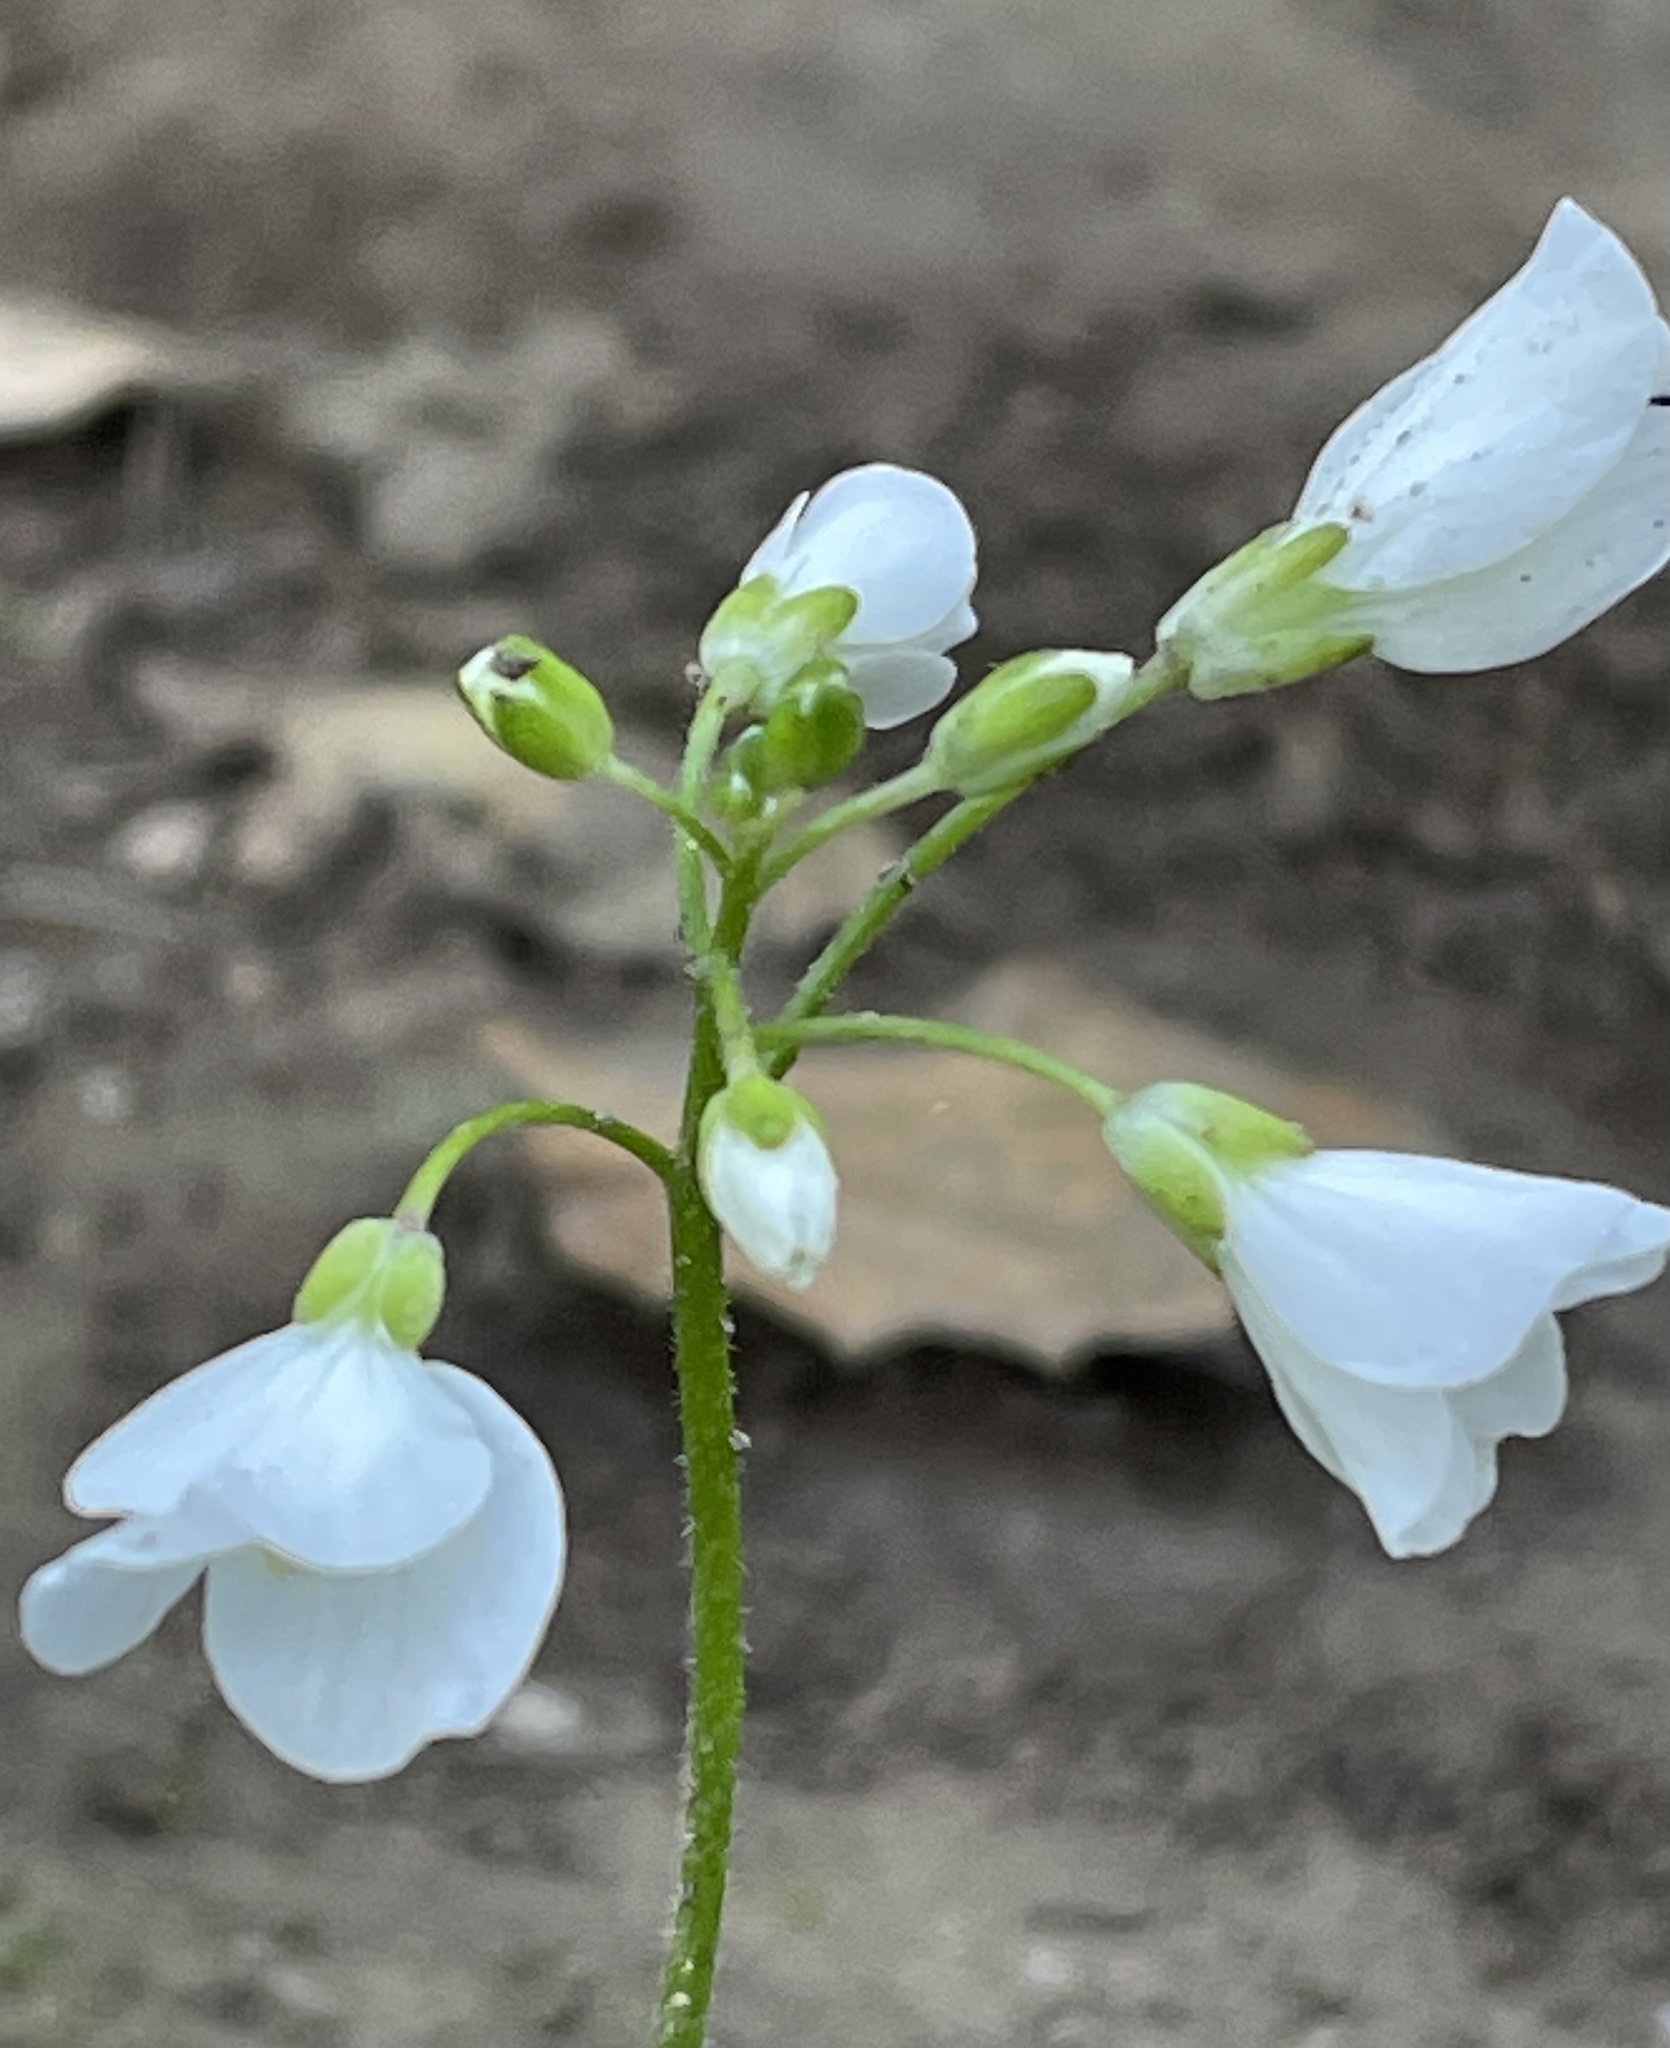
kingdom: Plantae
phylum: Tracheophyta
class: Magnoliopsida
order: Brassicales
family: Brassicaceae
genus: Cardamine
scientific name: Cardamine californica
